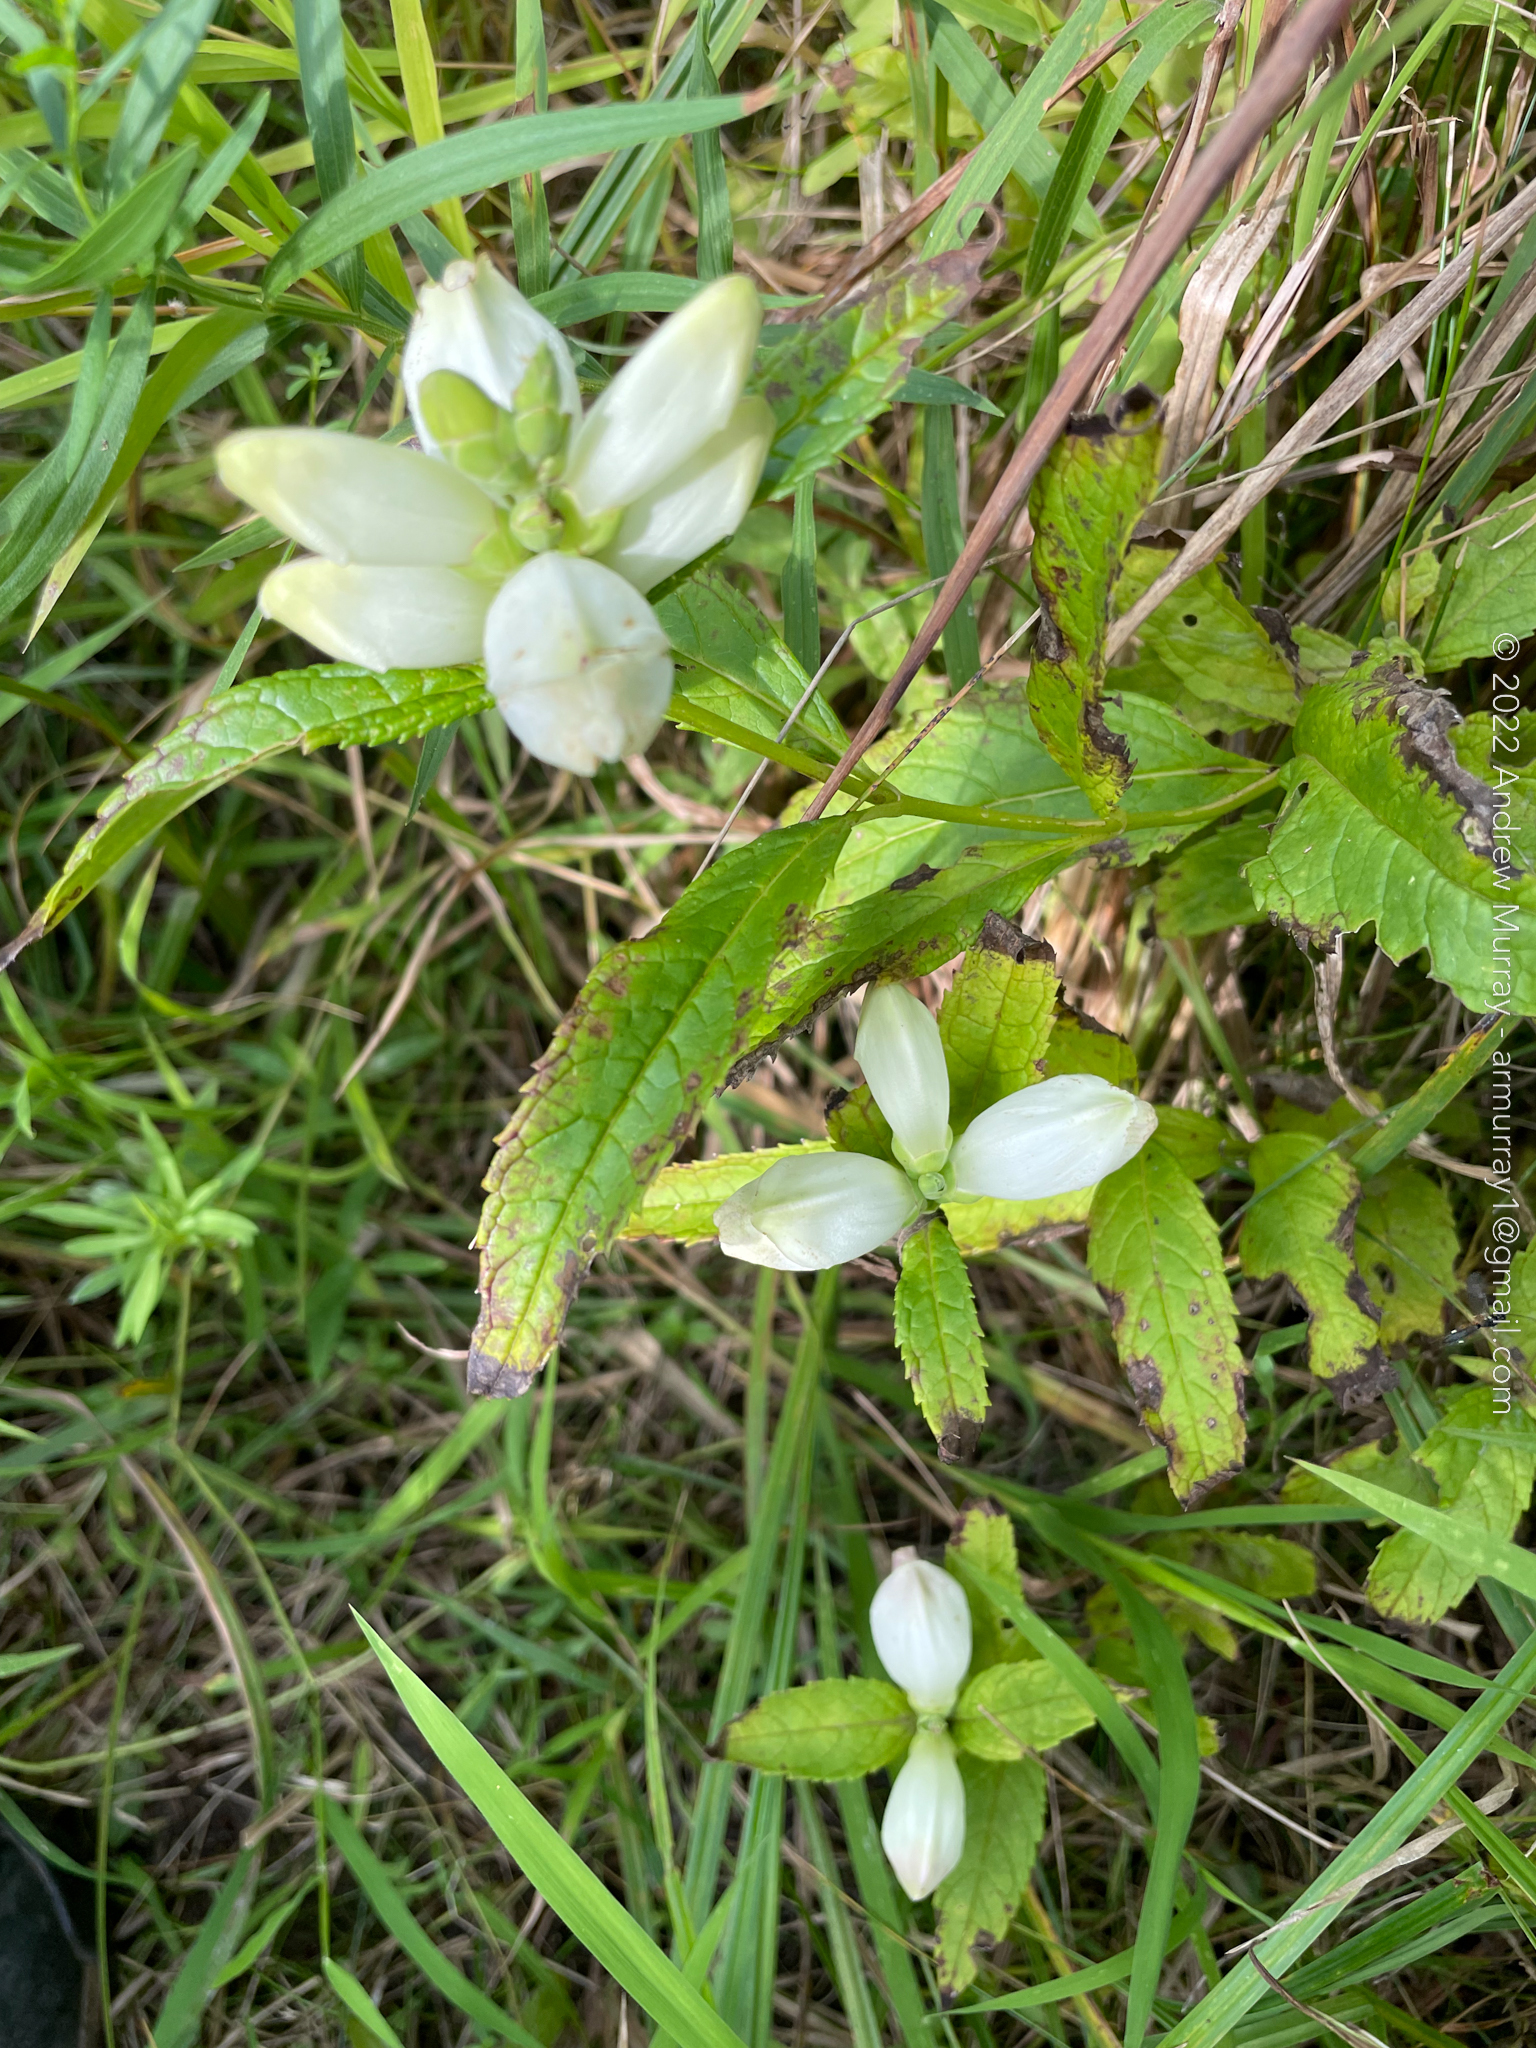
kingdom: Plantae
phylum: Tracheophyta
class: Magnoliopsida
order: Lamiales
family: Plantaginaceae
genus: Chelone
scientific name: Chelone glabra
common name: Snakehead
